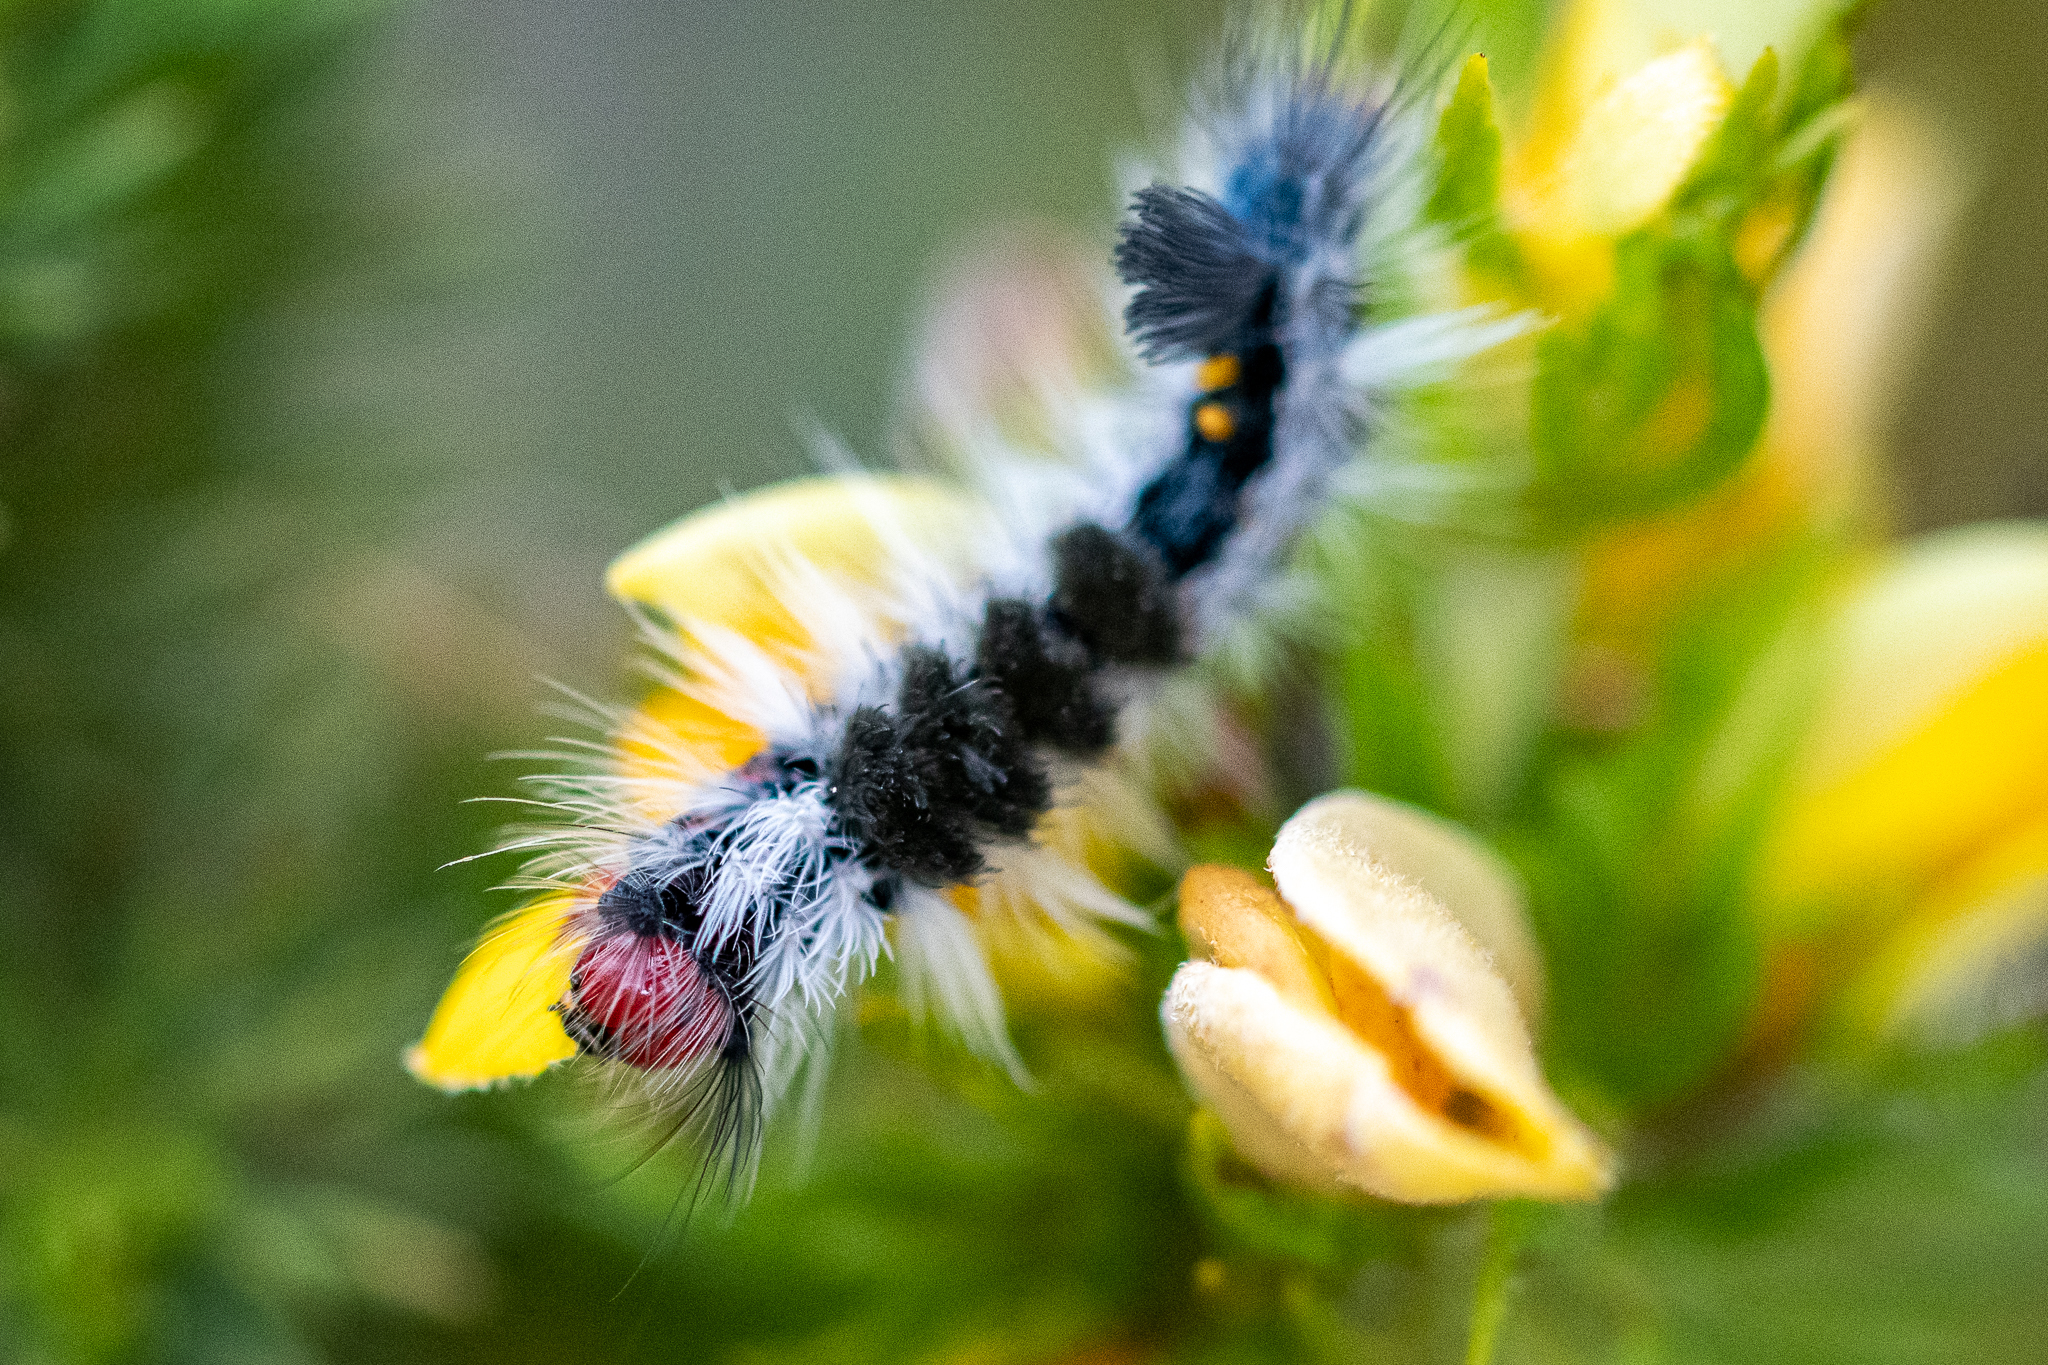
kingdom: Animalia
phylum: Arthropoda
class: Insecta
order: Lepidoptera
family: Erebidae
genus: Bracharoa
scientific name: Bracharoa dregei
